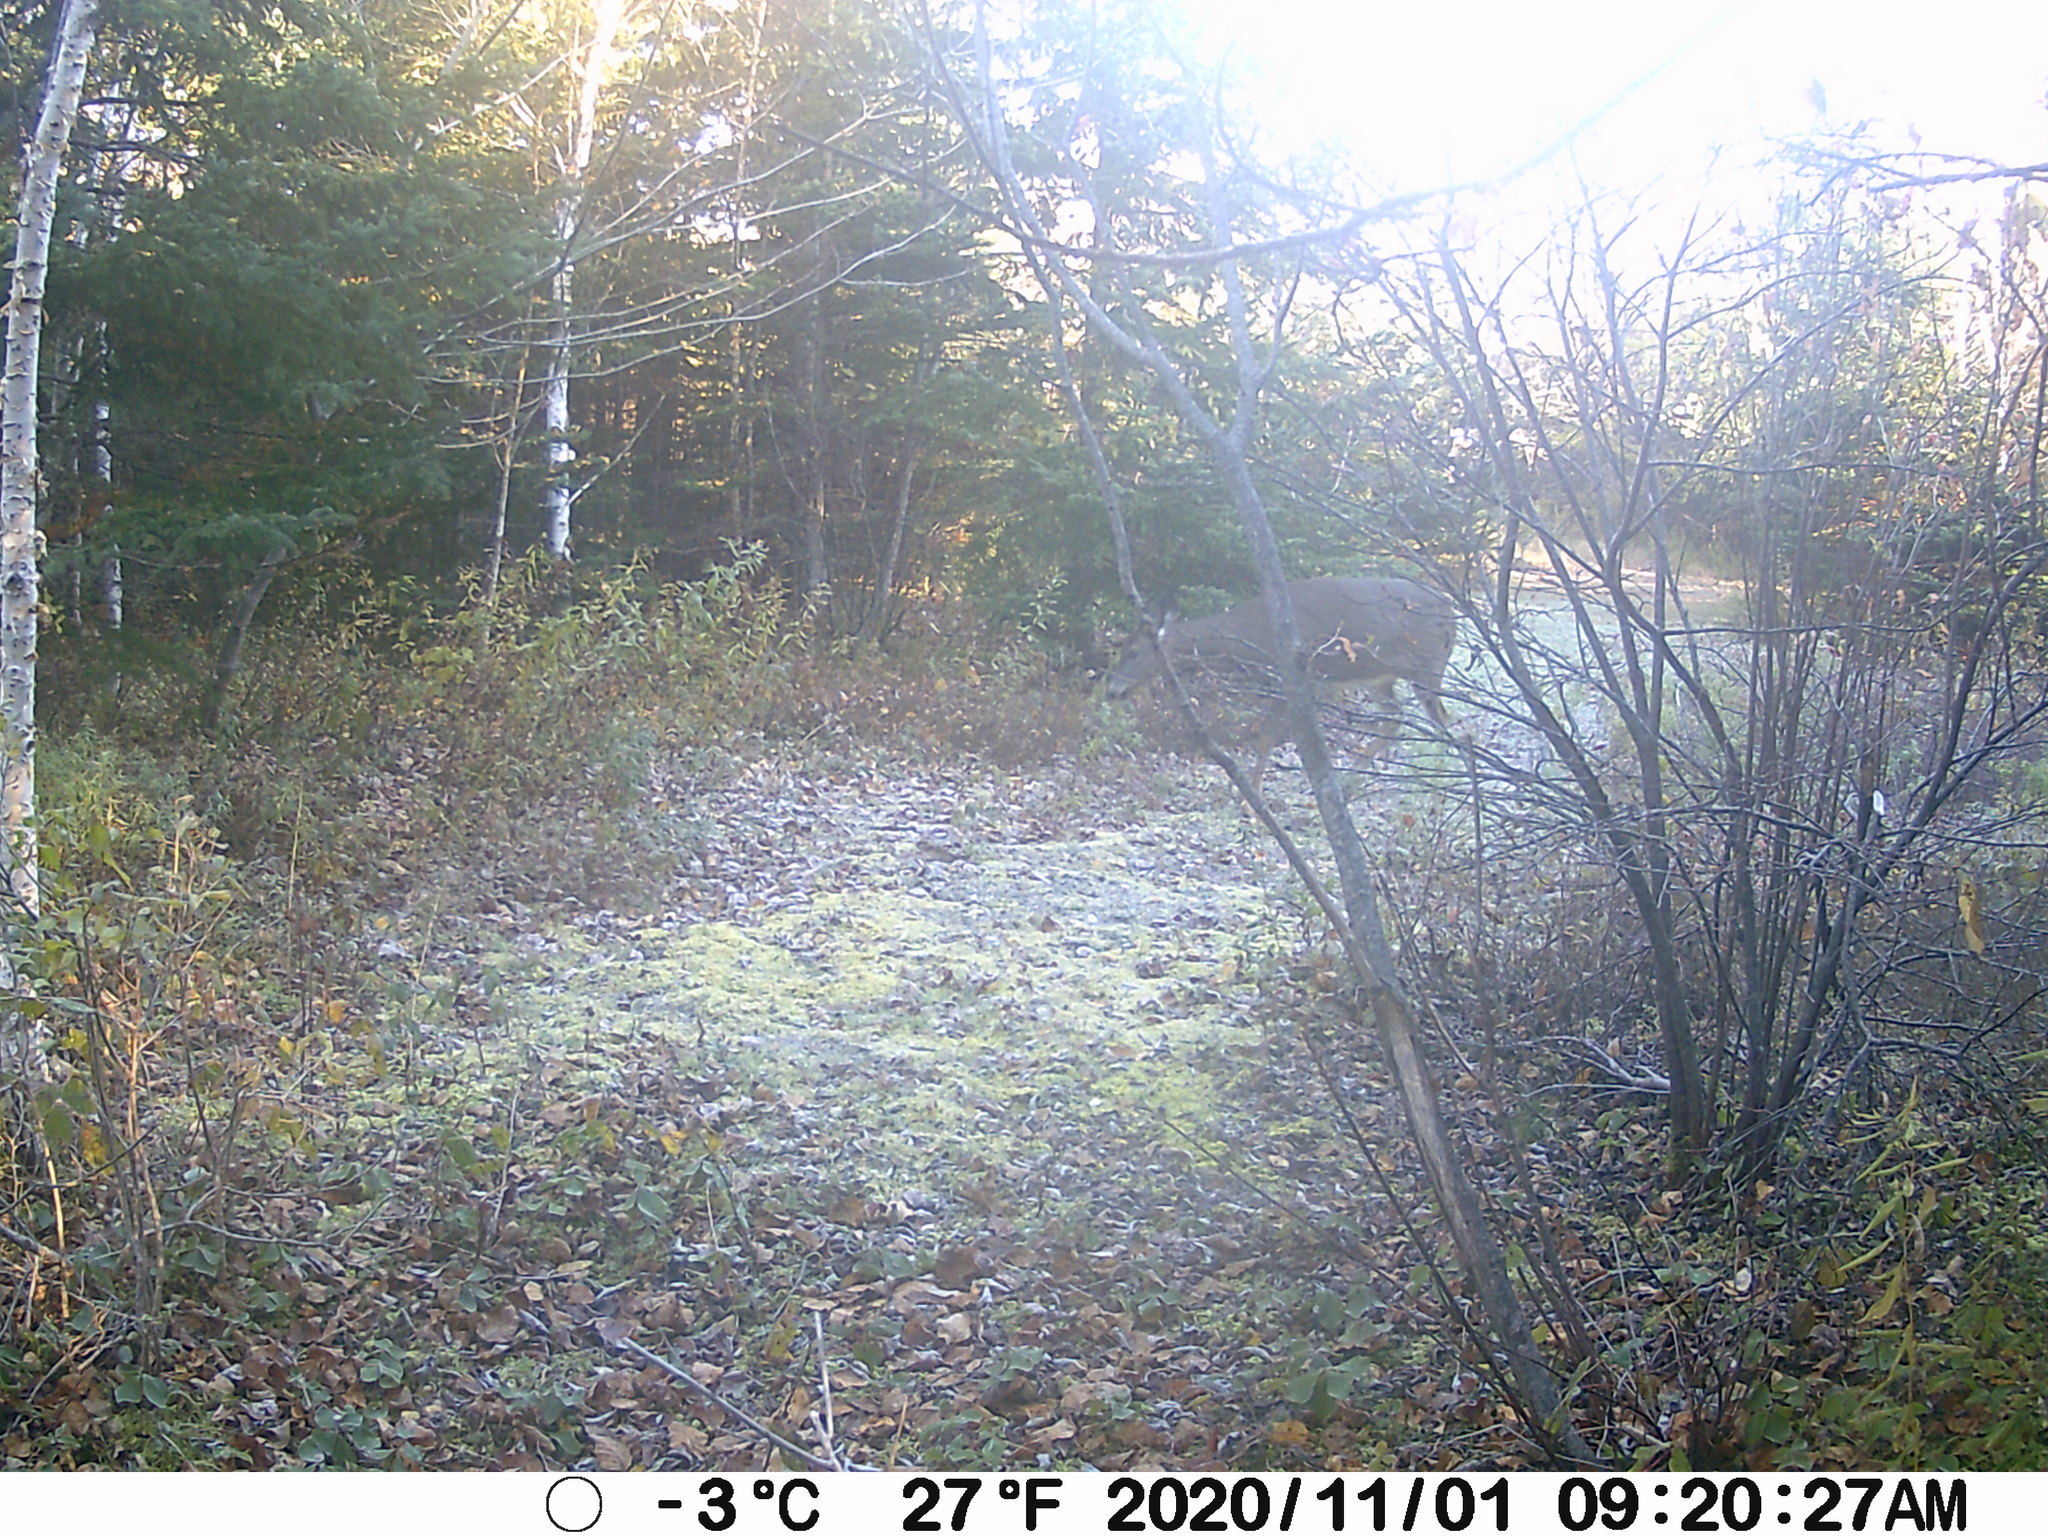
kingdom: Animalia
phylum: Chordata
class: Mammalia
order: Artiodactyla
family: Cervidae
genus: Odocoileus
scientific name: Odocoileus virginianus
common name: White-tailed deer
